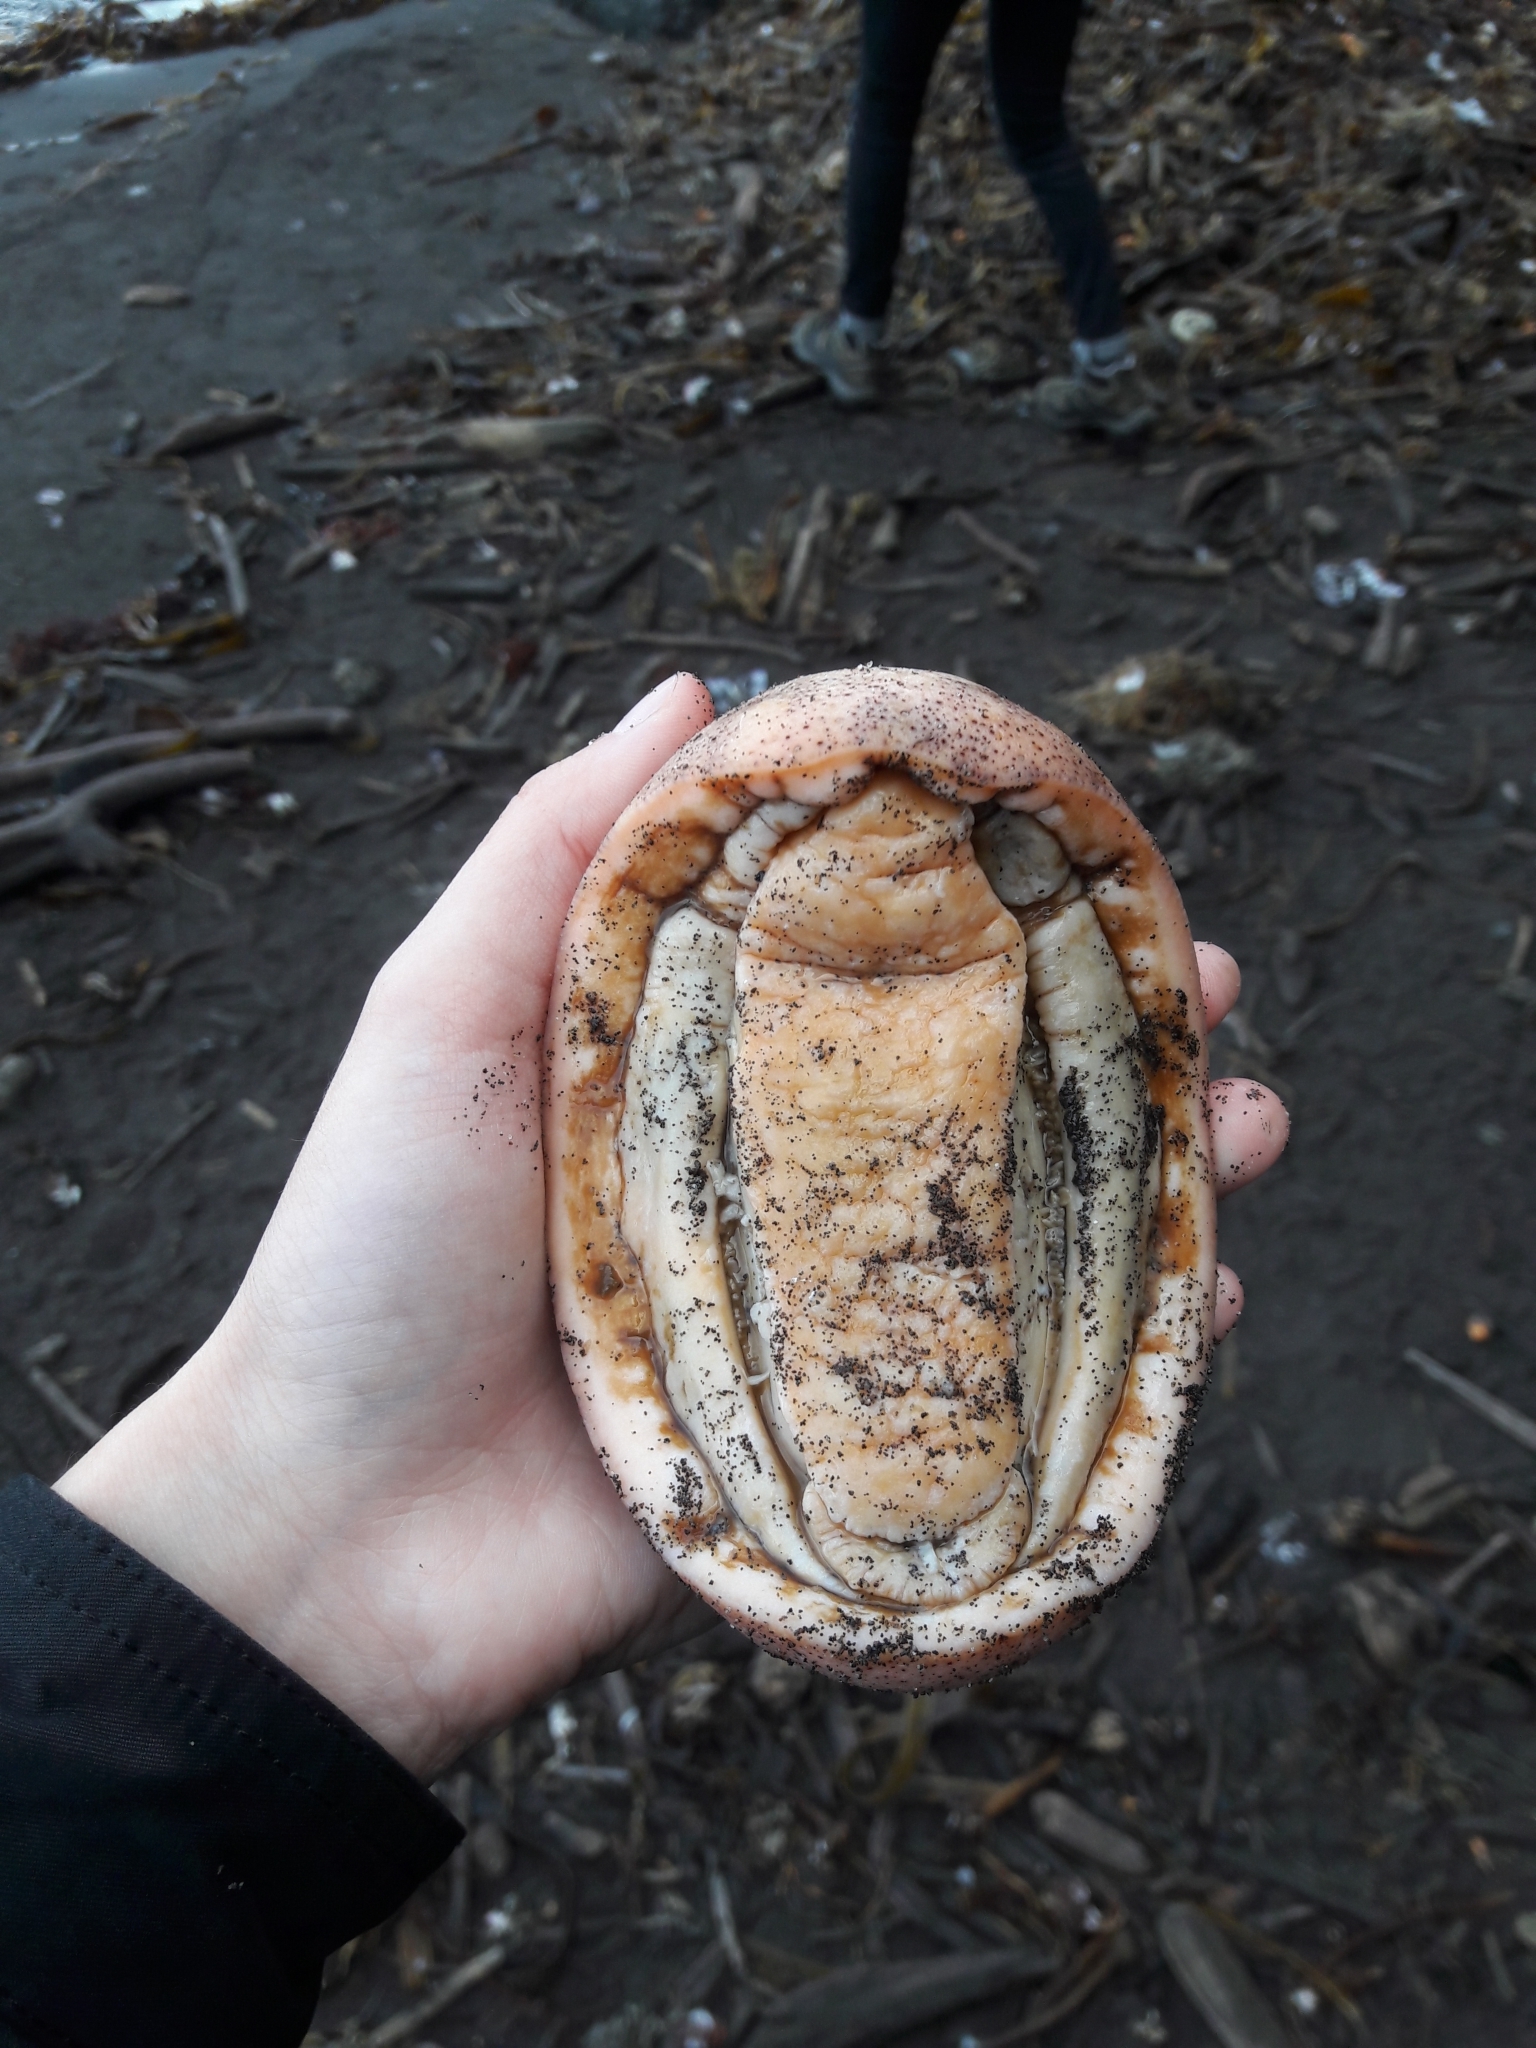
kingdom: Animalia
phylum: Mollusca
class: Polyplacophora
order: Chitonida
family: Acanthochitonidae
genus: Cryptochiton
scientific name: Cryptochiton stelleri
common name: Giant pacific chiton
